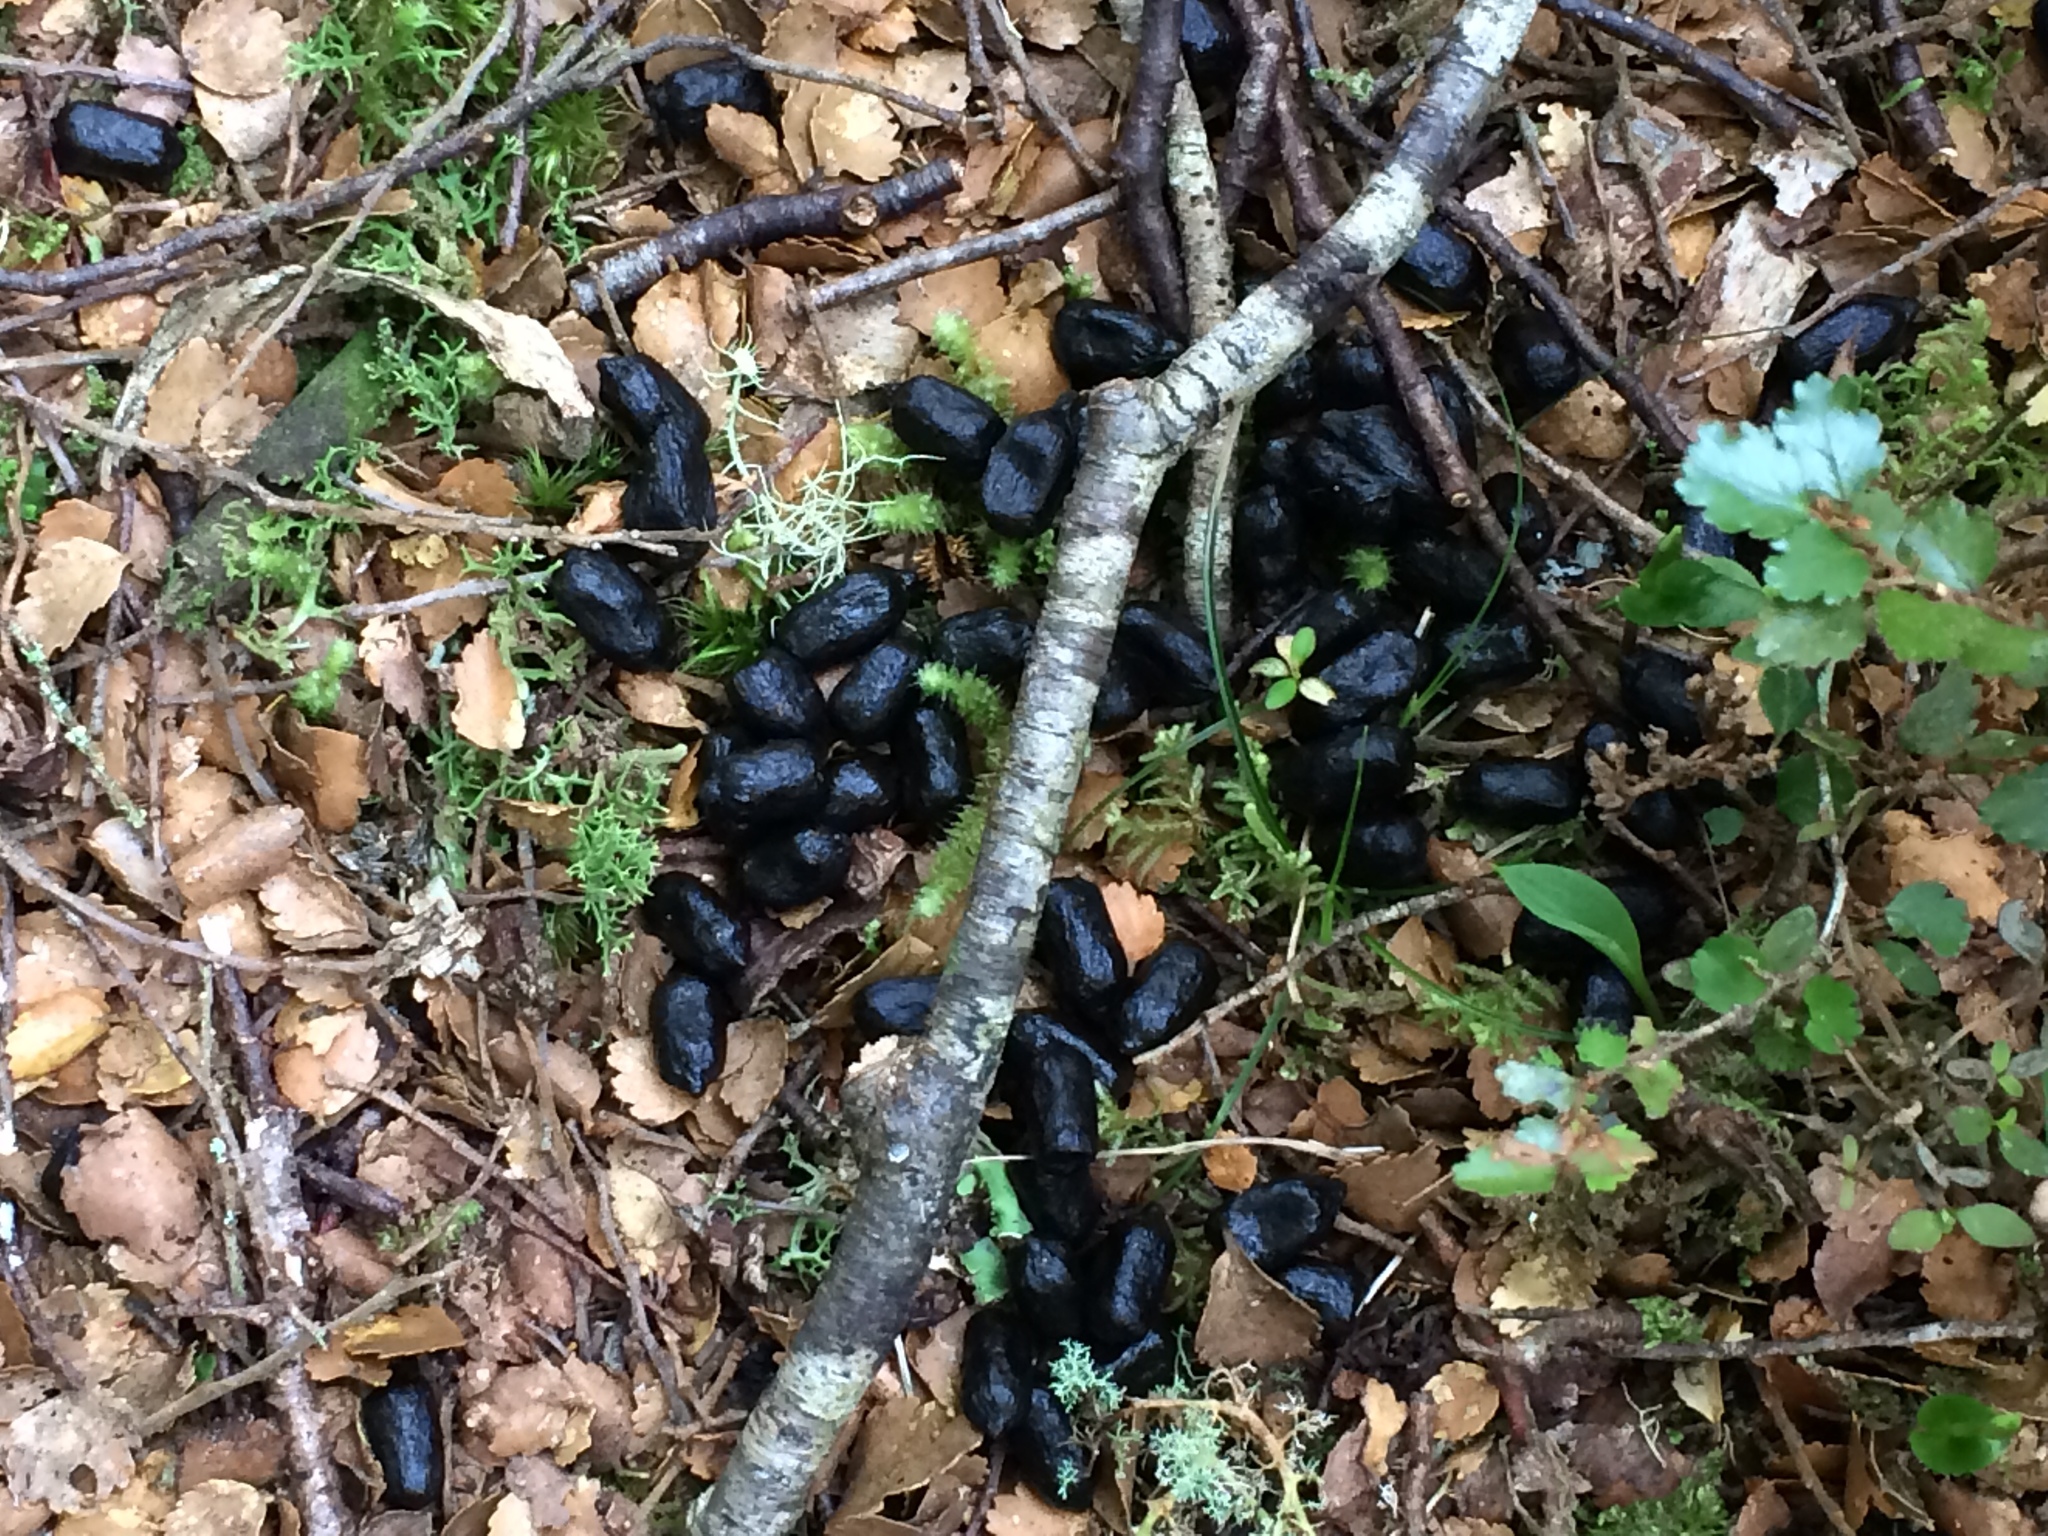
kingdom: Animalia
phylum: Chordata
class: Mammalia
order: Artiodactyla
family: Cervidae
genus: Dama
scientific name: Dama dama
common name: Fallow deer
